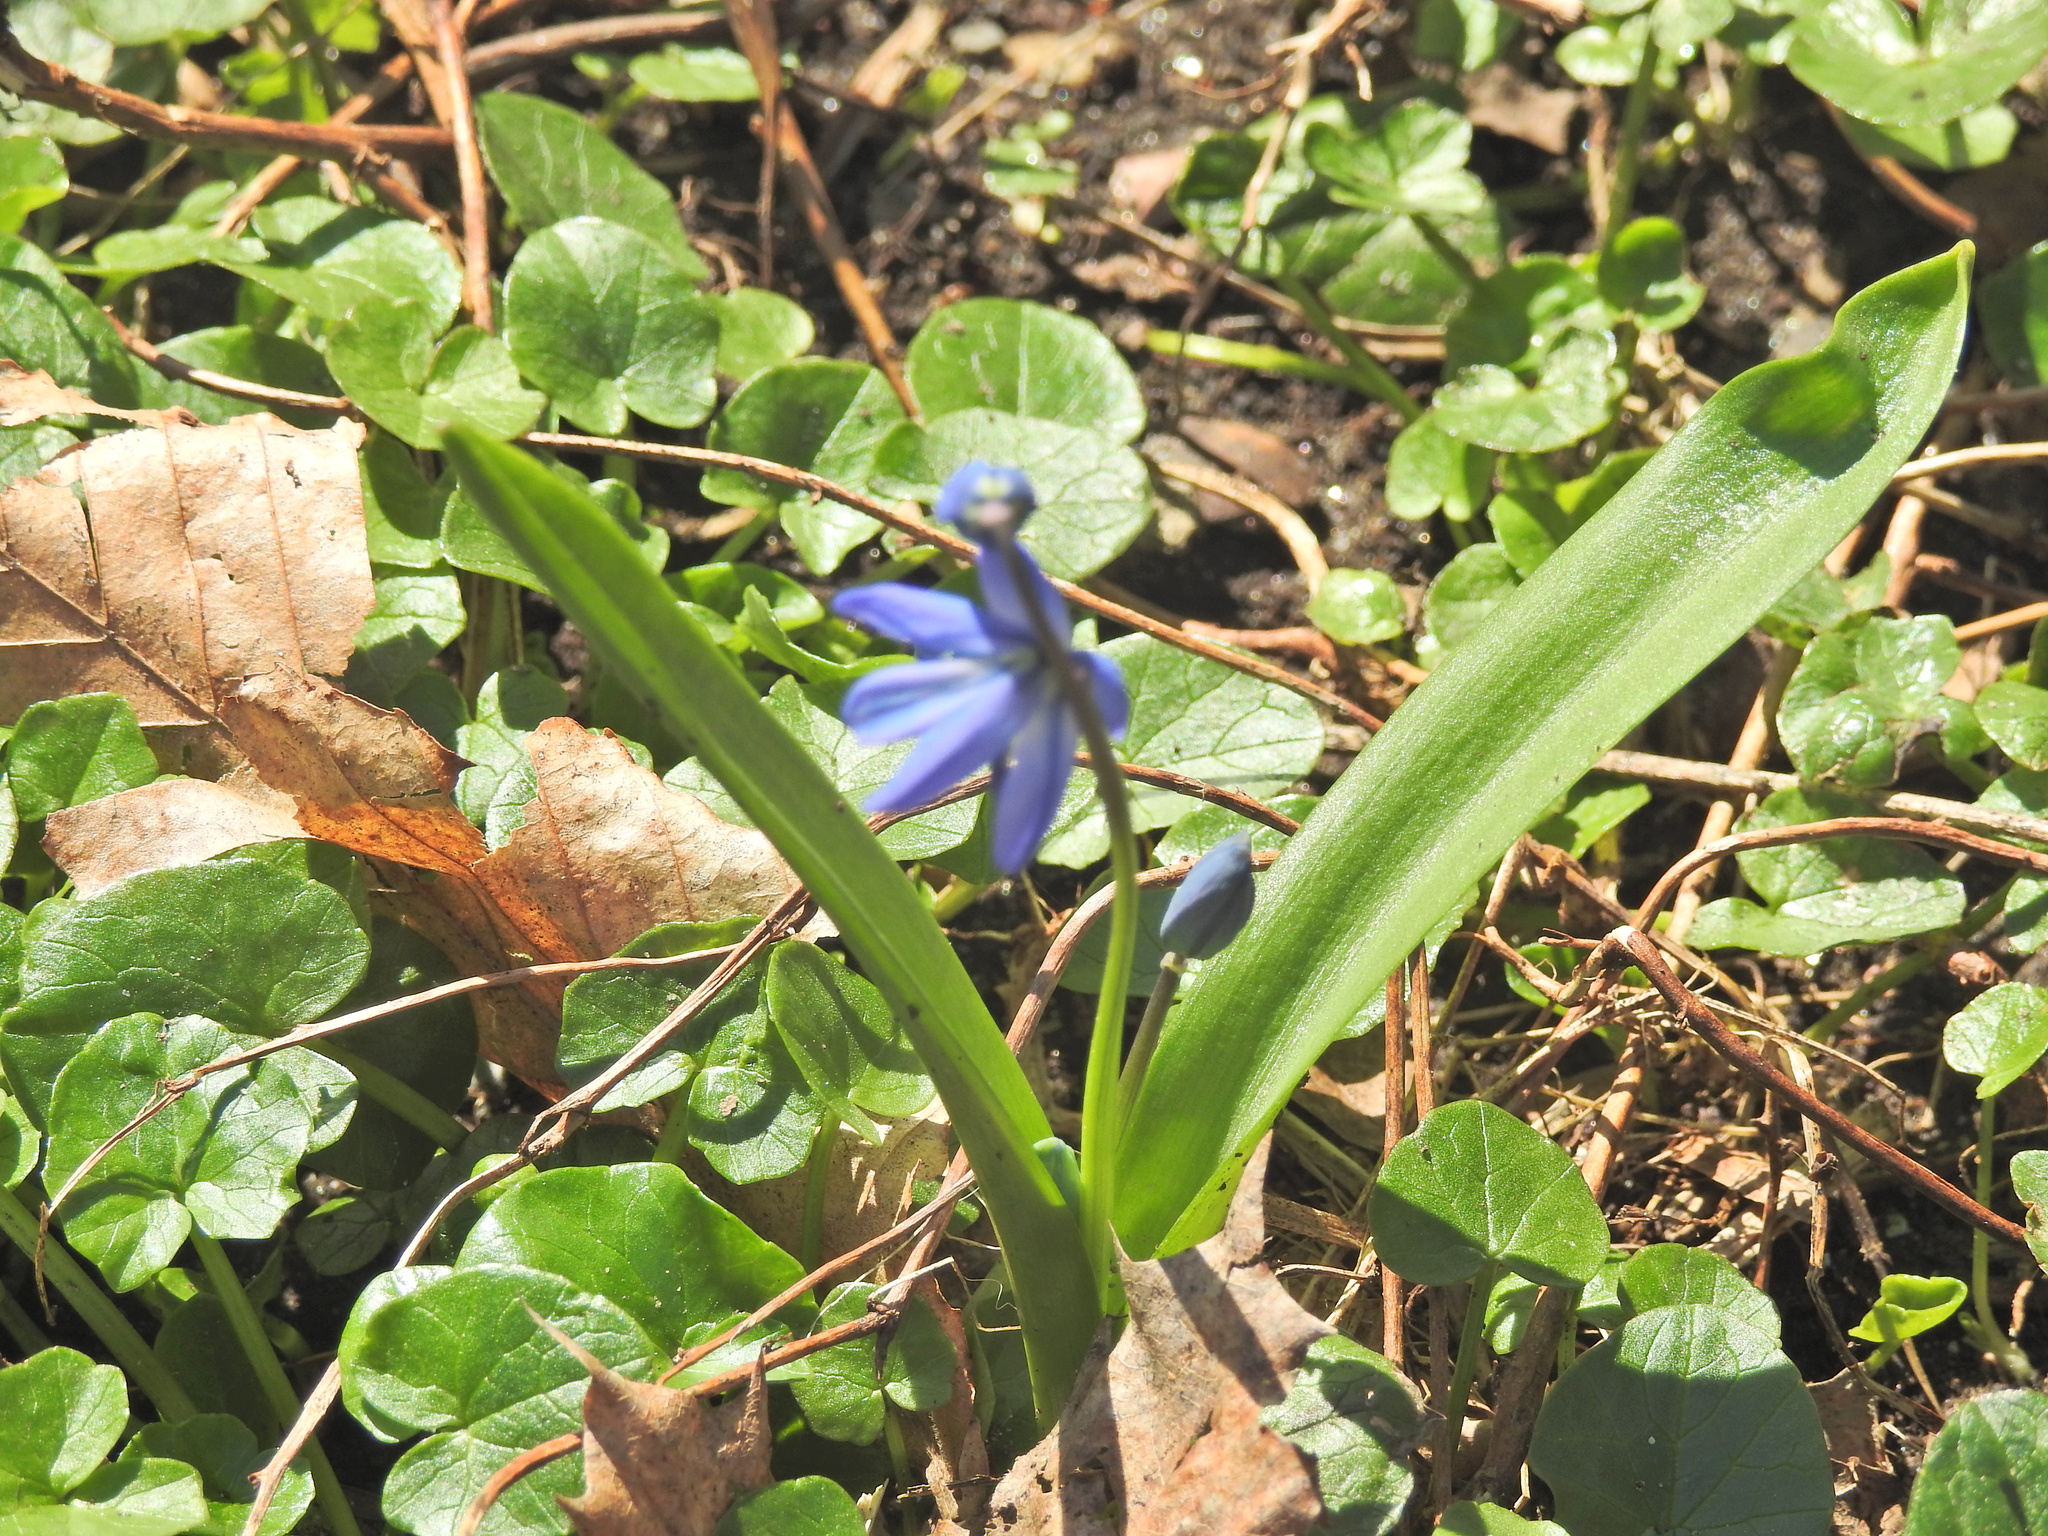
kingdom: Plantae
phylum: Tracheophyta
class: Liliopsida
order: Asparagales
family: Asparagaceae
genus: Scilla
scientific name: Scilla siberica
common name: Siberian squill
